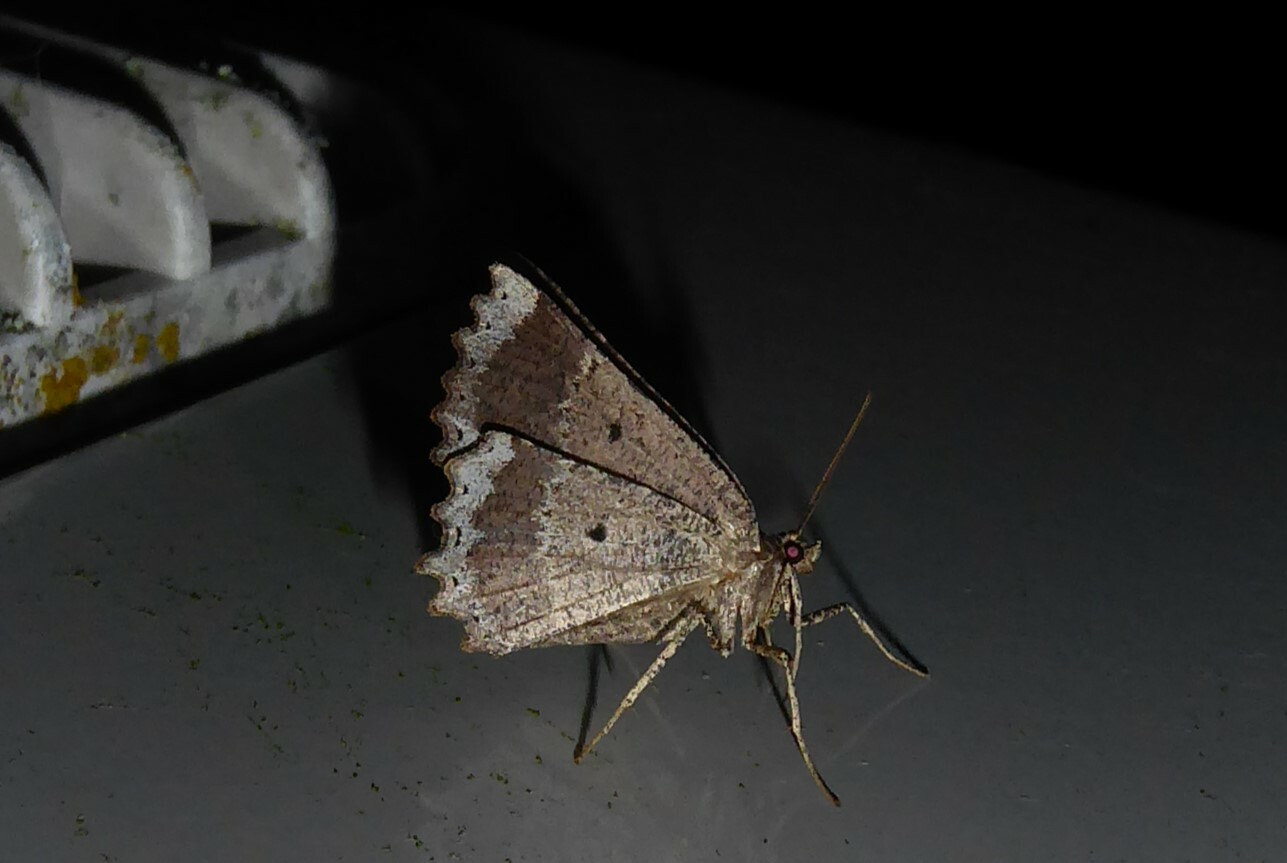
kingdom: Animalia
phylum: Arthropoda
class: Insecta
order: Lepidoptera
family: Geometridae
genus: Gellonia
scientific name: Gellonia pannularia
